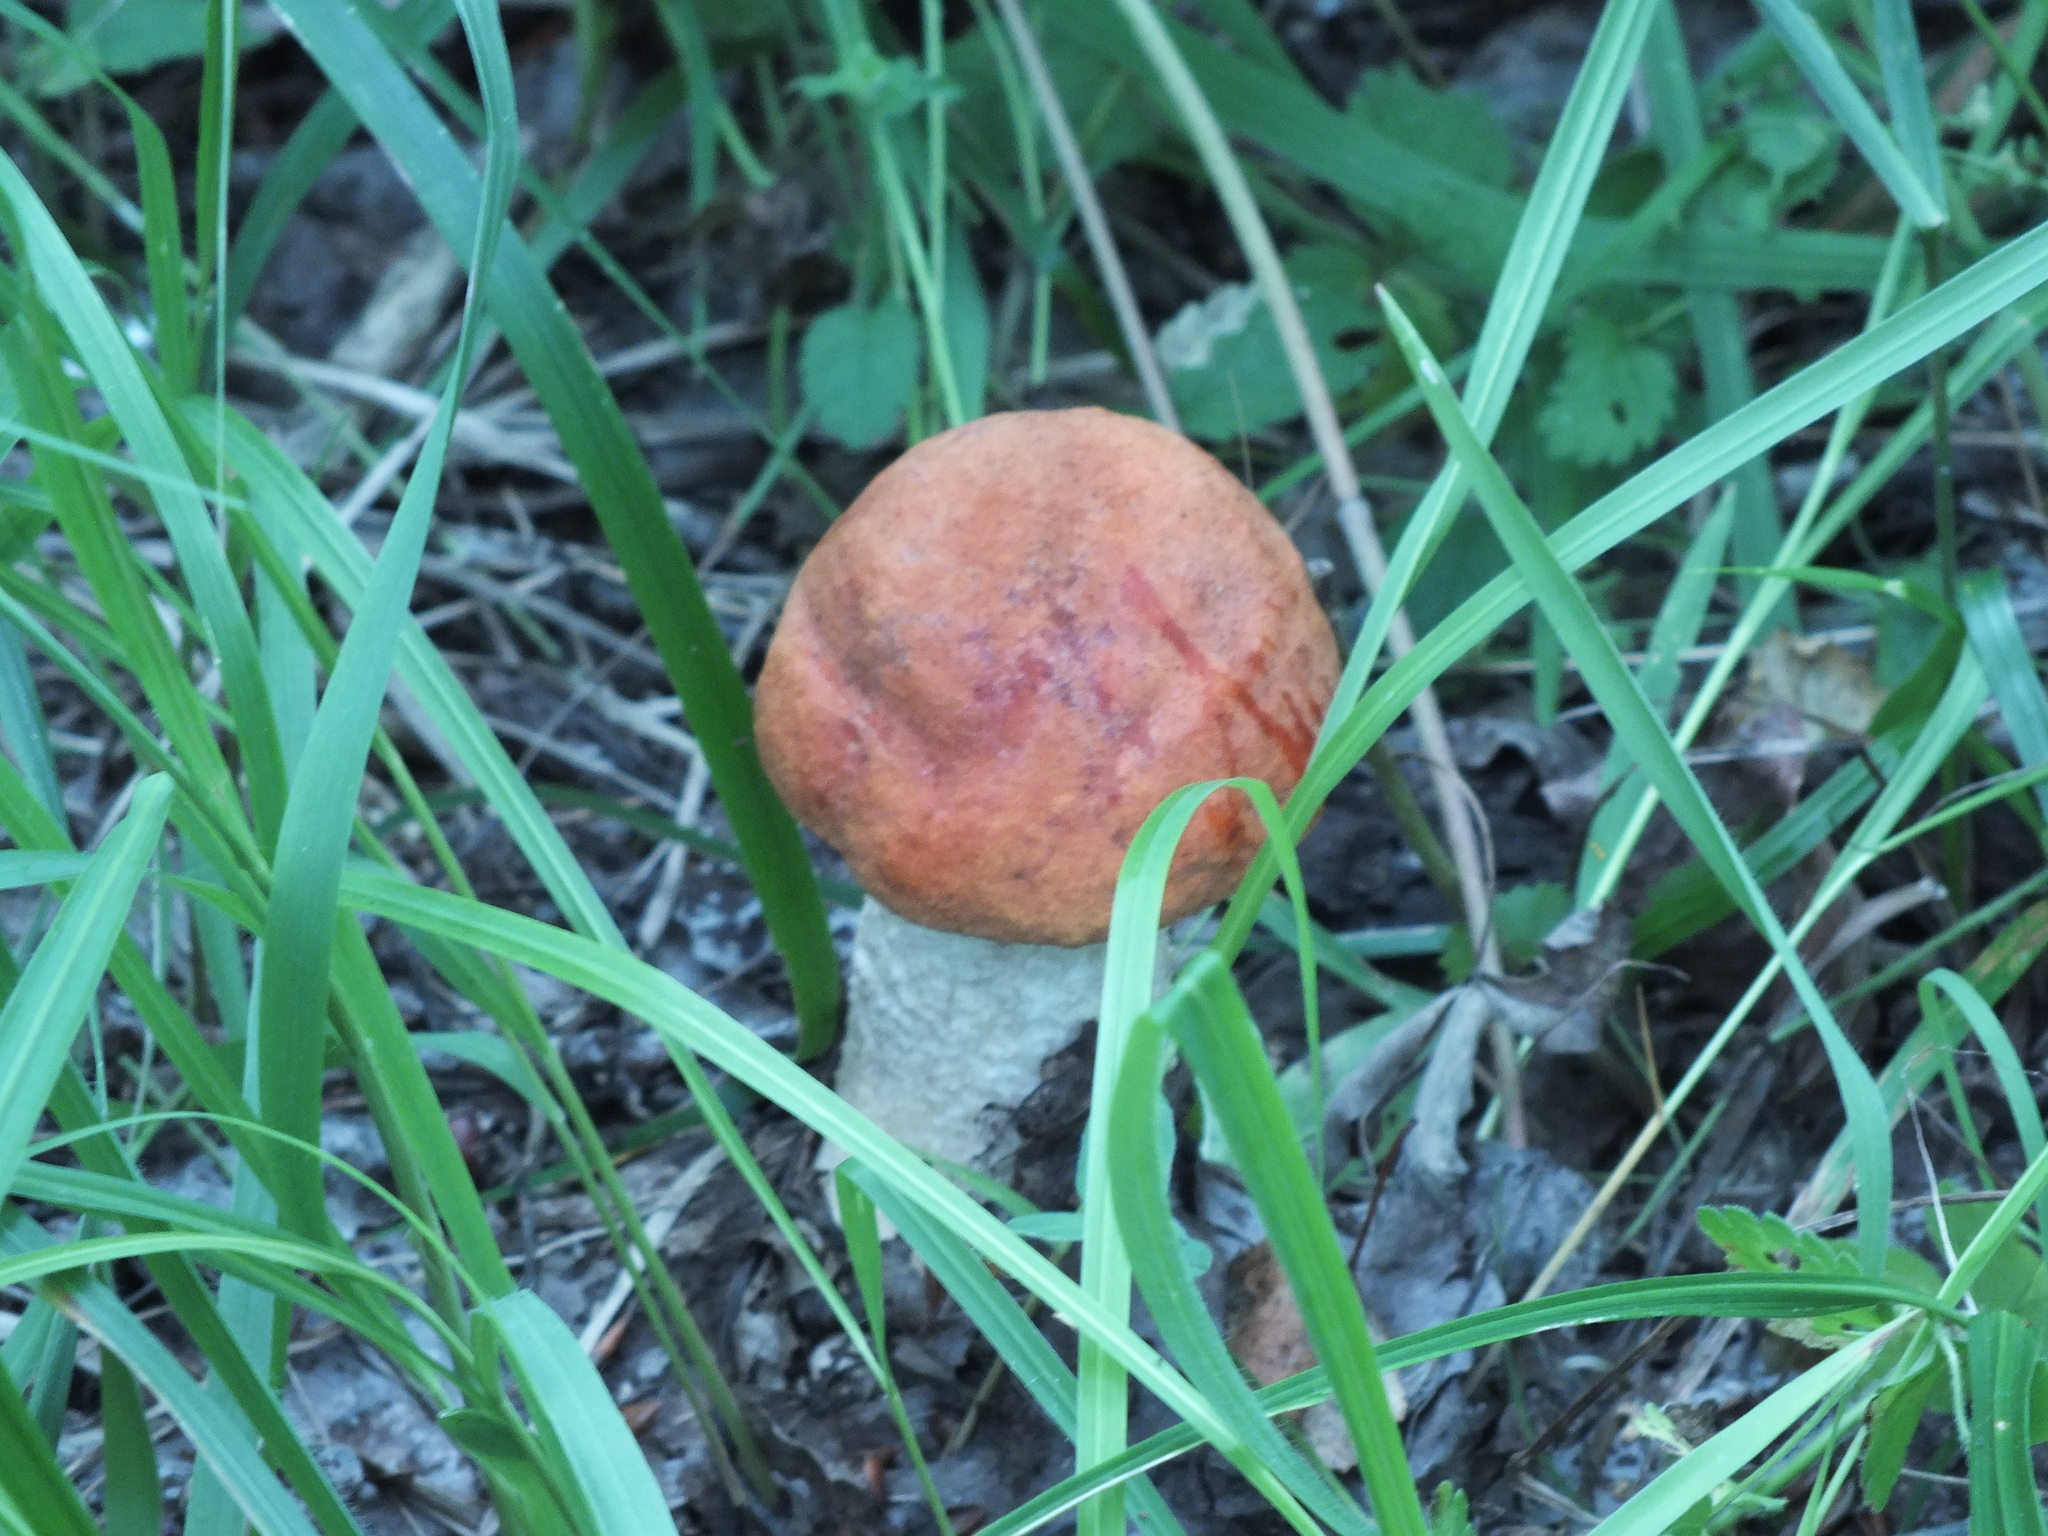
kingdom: Fungi
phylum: Basidiomycota
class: Agaricomycetes
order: Boletales
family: Boletaceae
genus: Leccinum
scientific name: Leccinum albostipitatum
